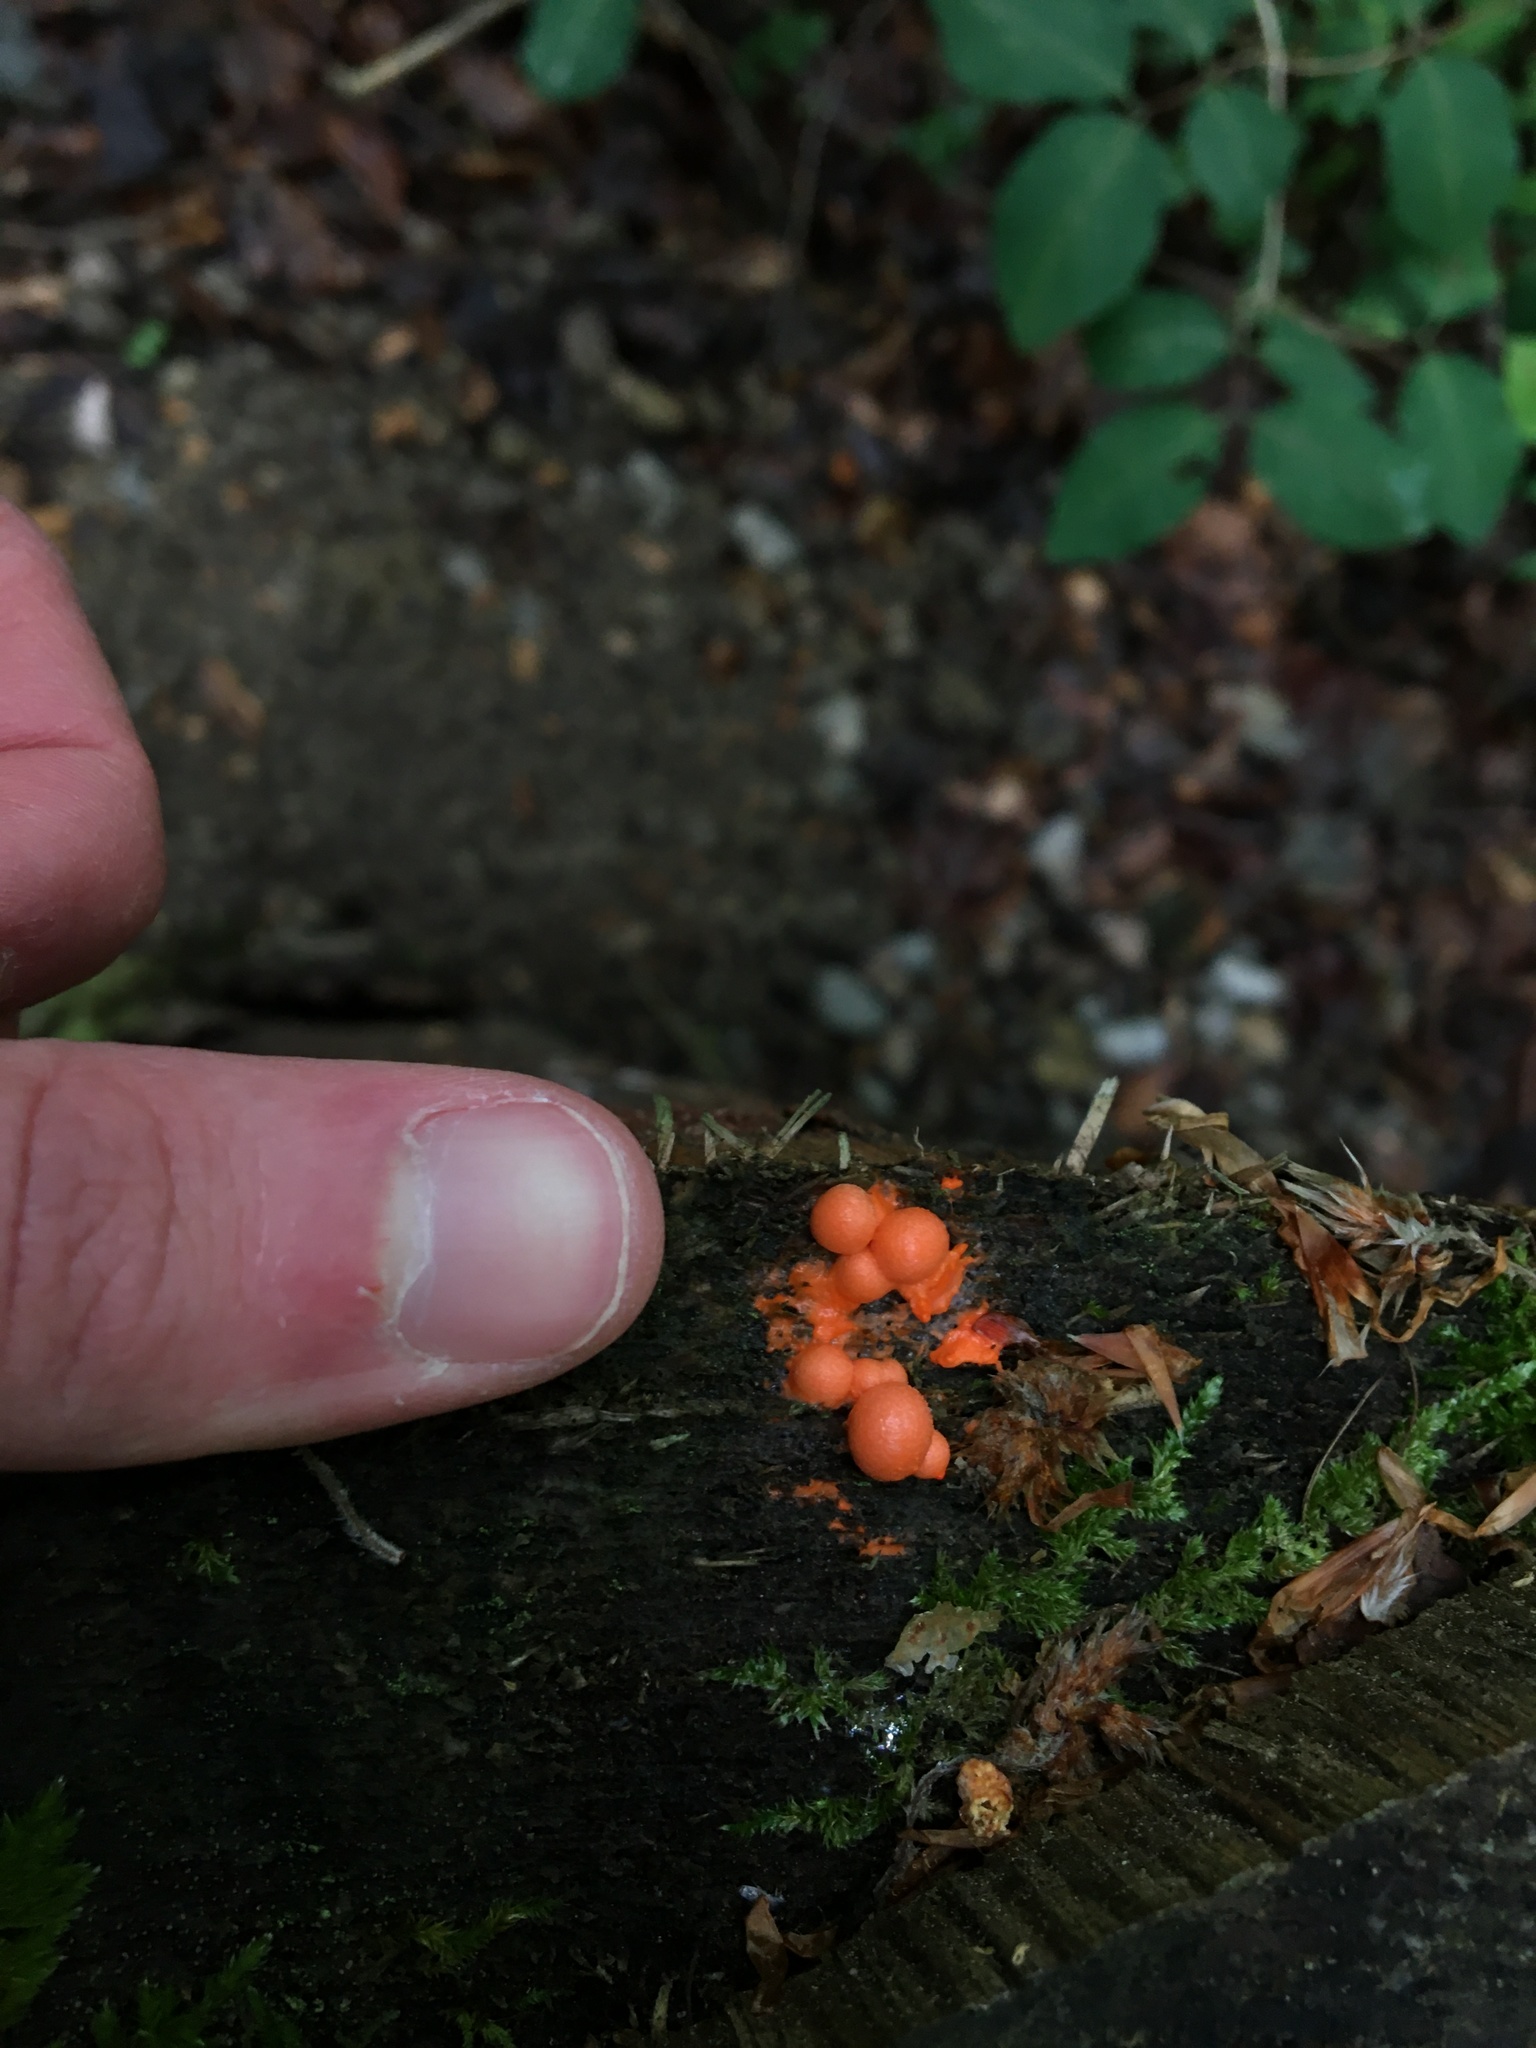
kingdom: Protozoa
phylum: Mycetozoa
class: Myxomycetes
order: Cribrariales
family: Tubiferaceae
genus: Lycogala
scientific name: Lycogala epidendrum
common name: Wolf's milk
